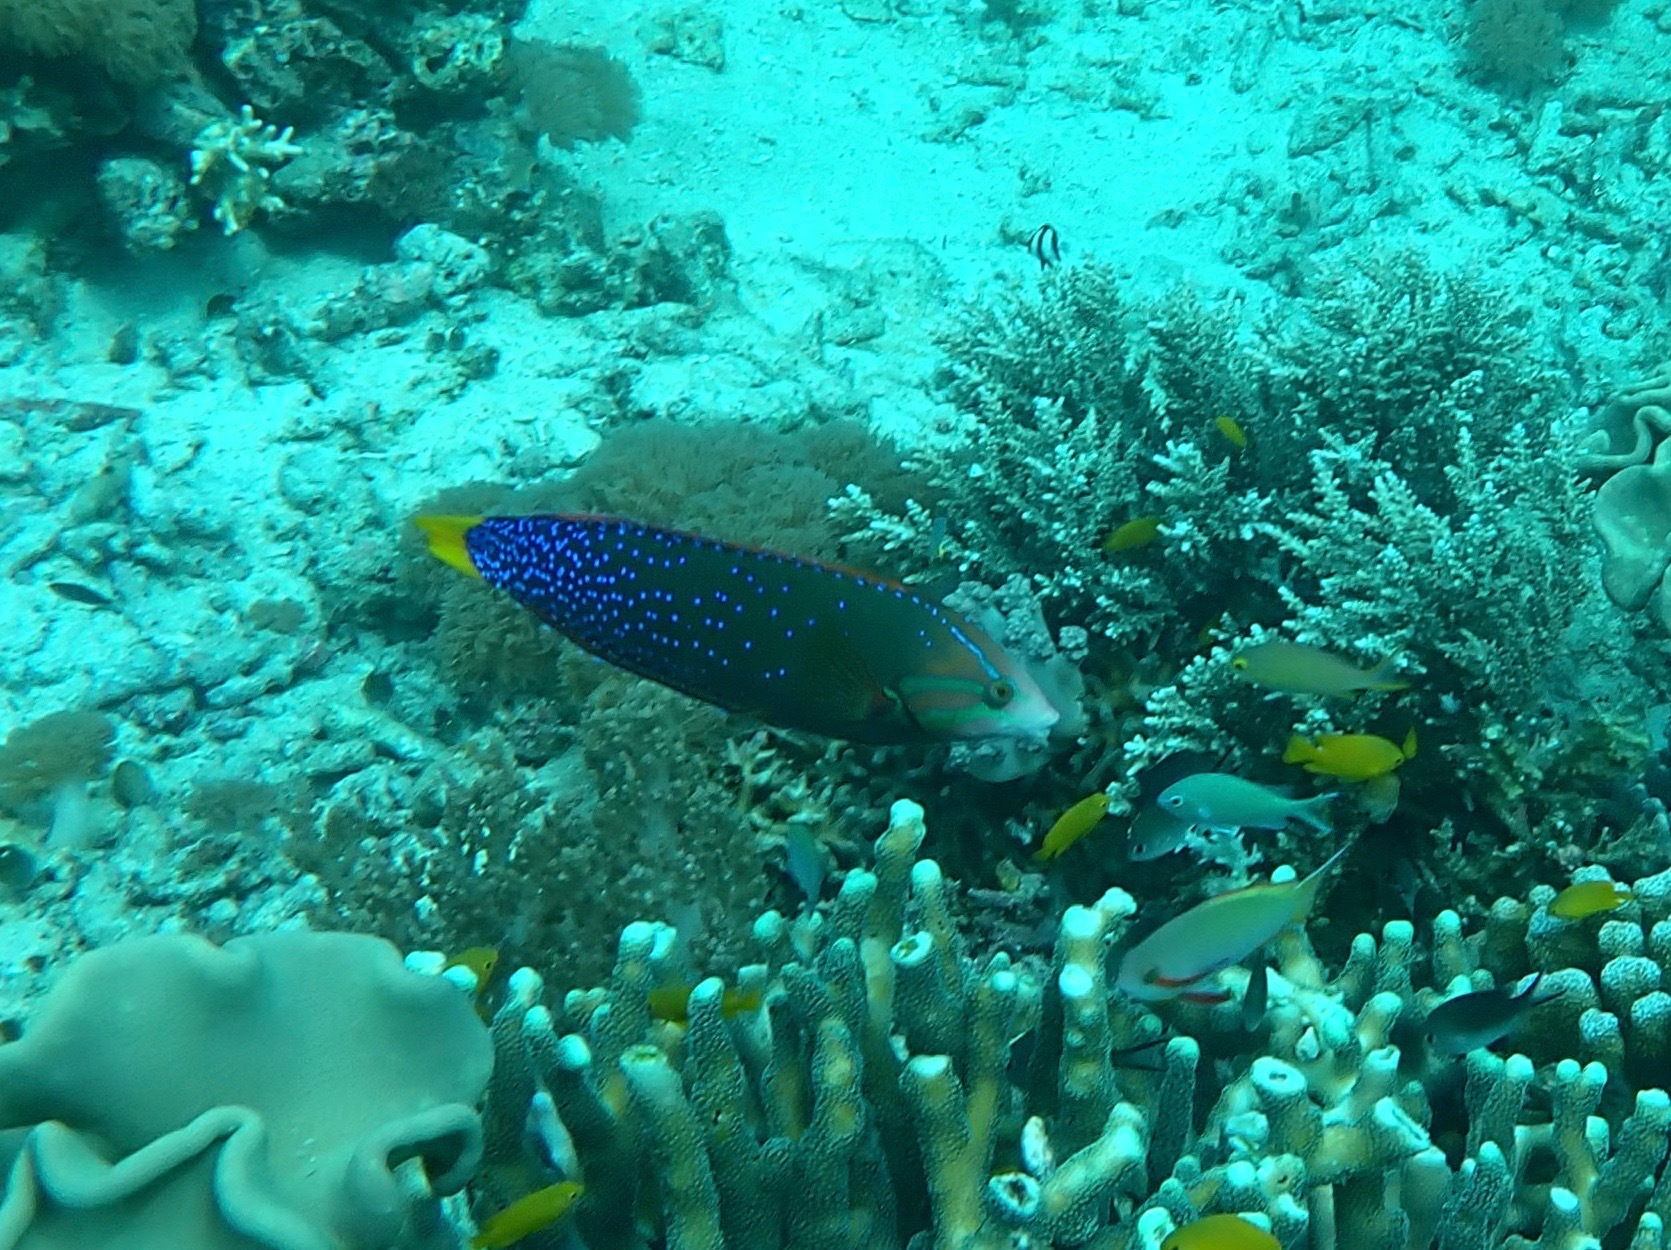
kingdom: Animalia
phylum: Chordata
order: Perciformes
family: Labridae
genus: Coris
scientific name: Coris gaimard
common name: Yellowtail coris
